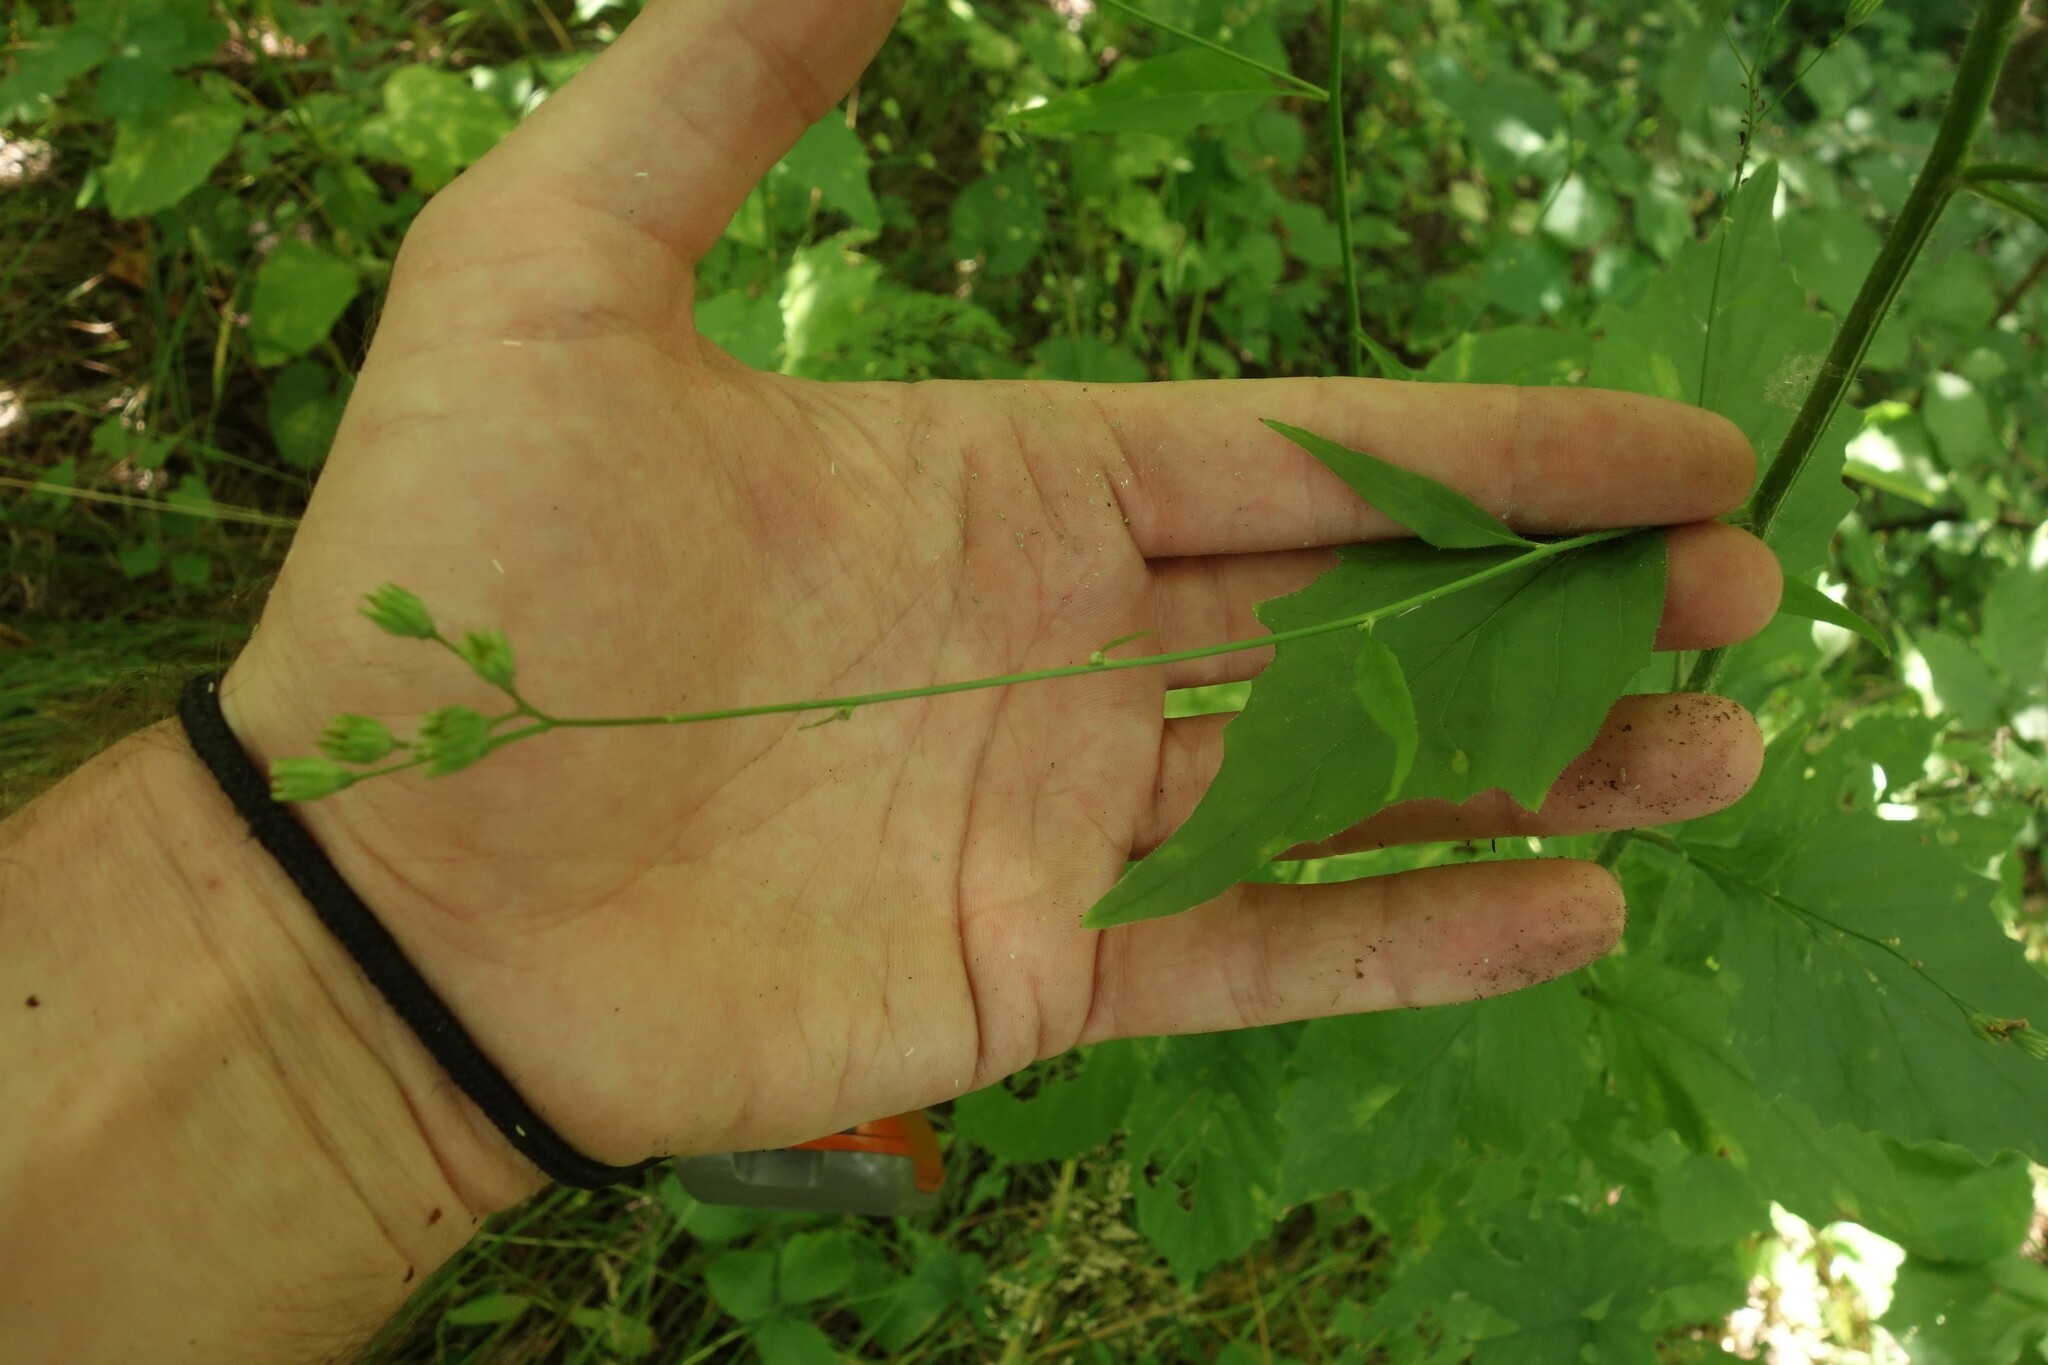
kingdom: Plantae
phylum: Tracheophyta
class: Magnoliopsida
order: Asterales
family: Asteraceae
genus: Lapsana
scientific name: Lapsana communis
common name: Nipplewort
